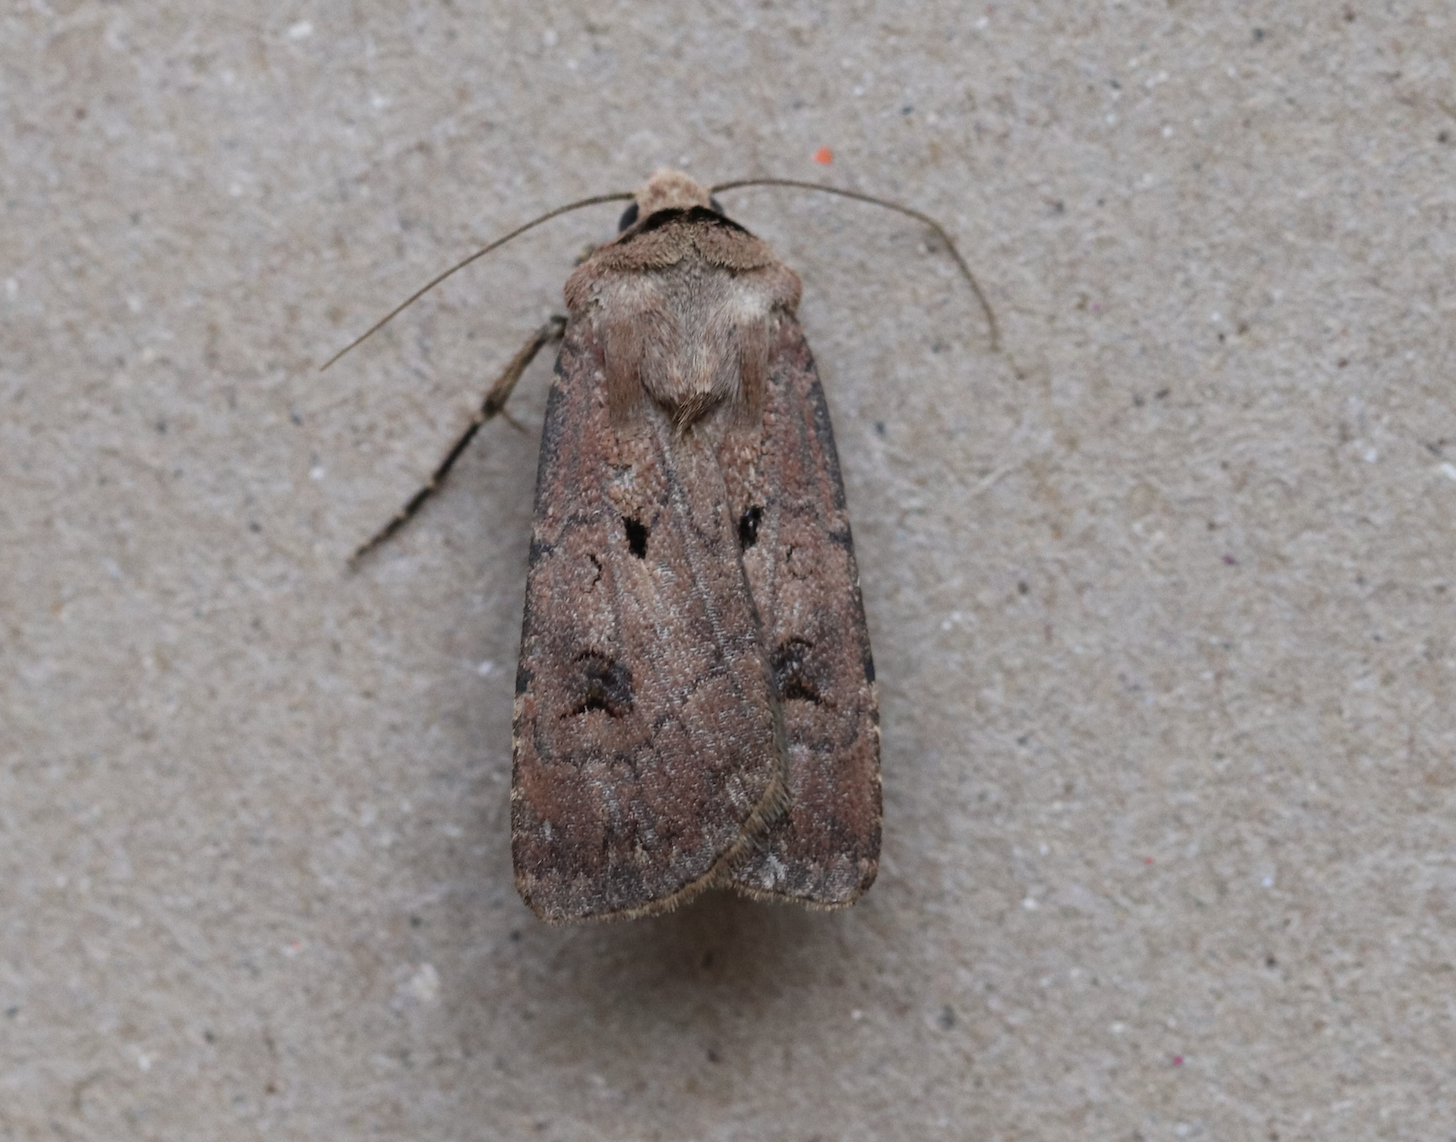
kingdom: Animalia
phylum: Arthropoda
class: Insecta
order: Lepidoptera
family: Noctuidae
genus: Agrotis
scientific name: Agrotis exclamationis
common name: Heart and dart
